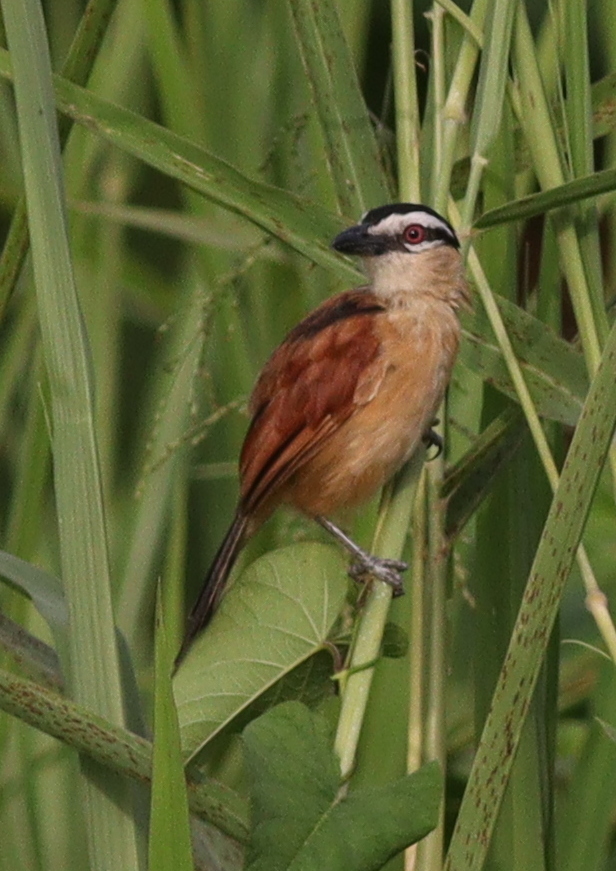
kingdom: Animalia
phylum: Chordata
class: Aves
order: Passeriformes
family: Malaconotidae
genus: Bocagia
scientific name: Bocagia minuta
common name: Marsh tchagra
